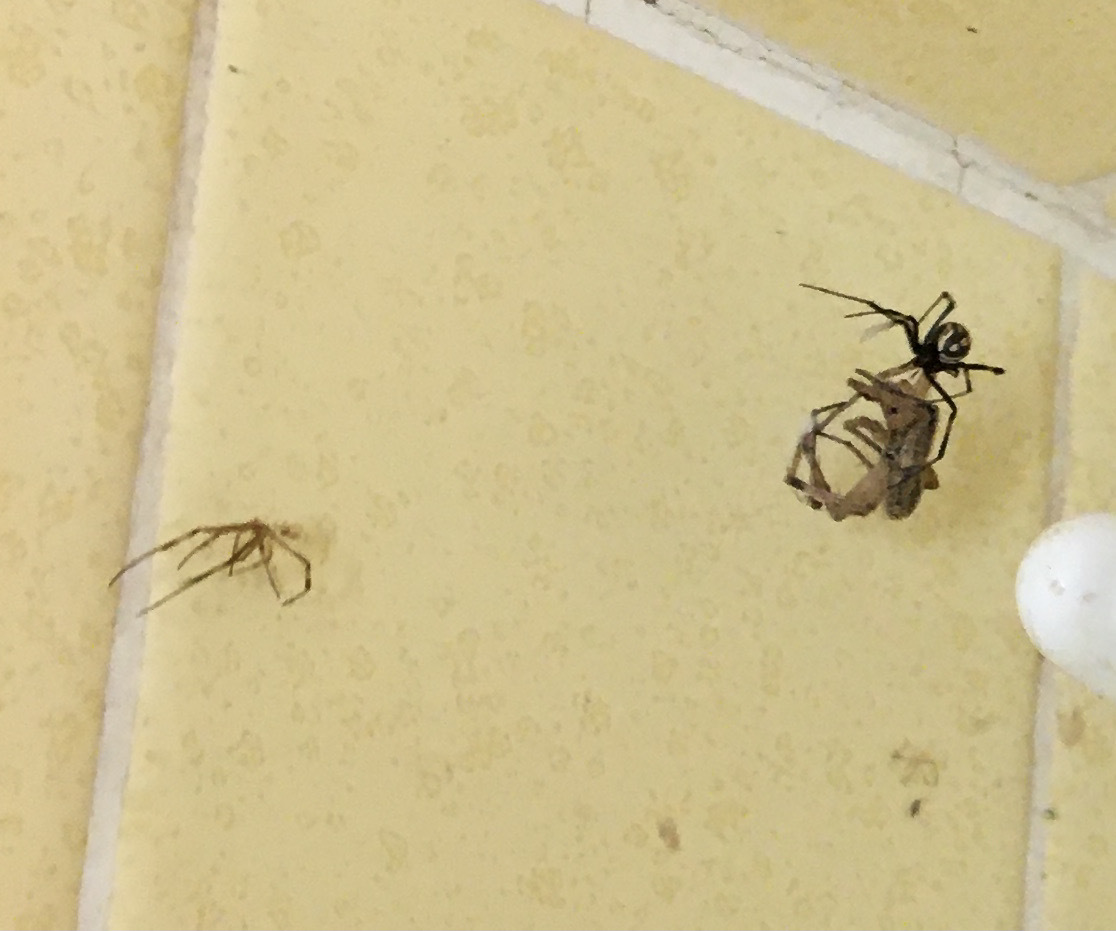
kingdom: Animalia
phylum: Arthropoda
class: Arachnida
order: Araneae
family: Theridiidae
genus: Latrodectus
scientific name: Latrodectus hesperus
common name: Western black widow
